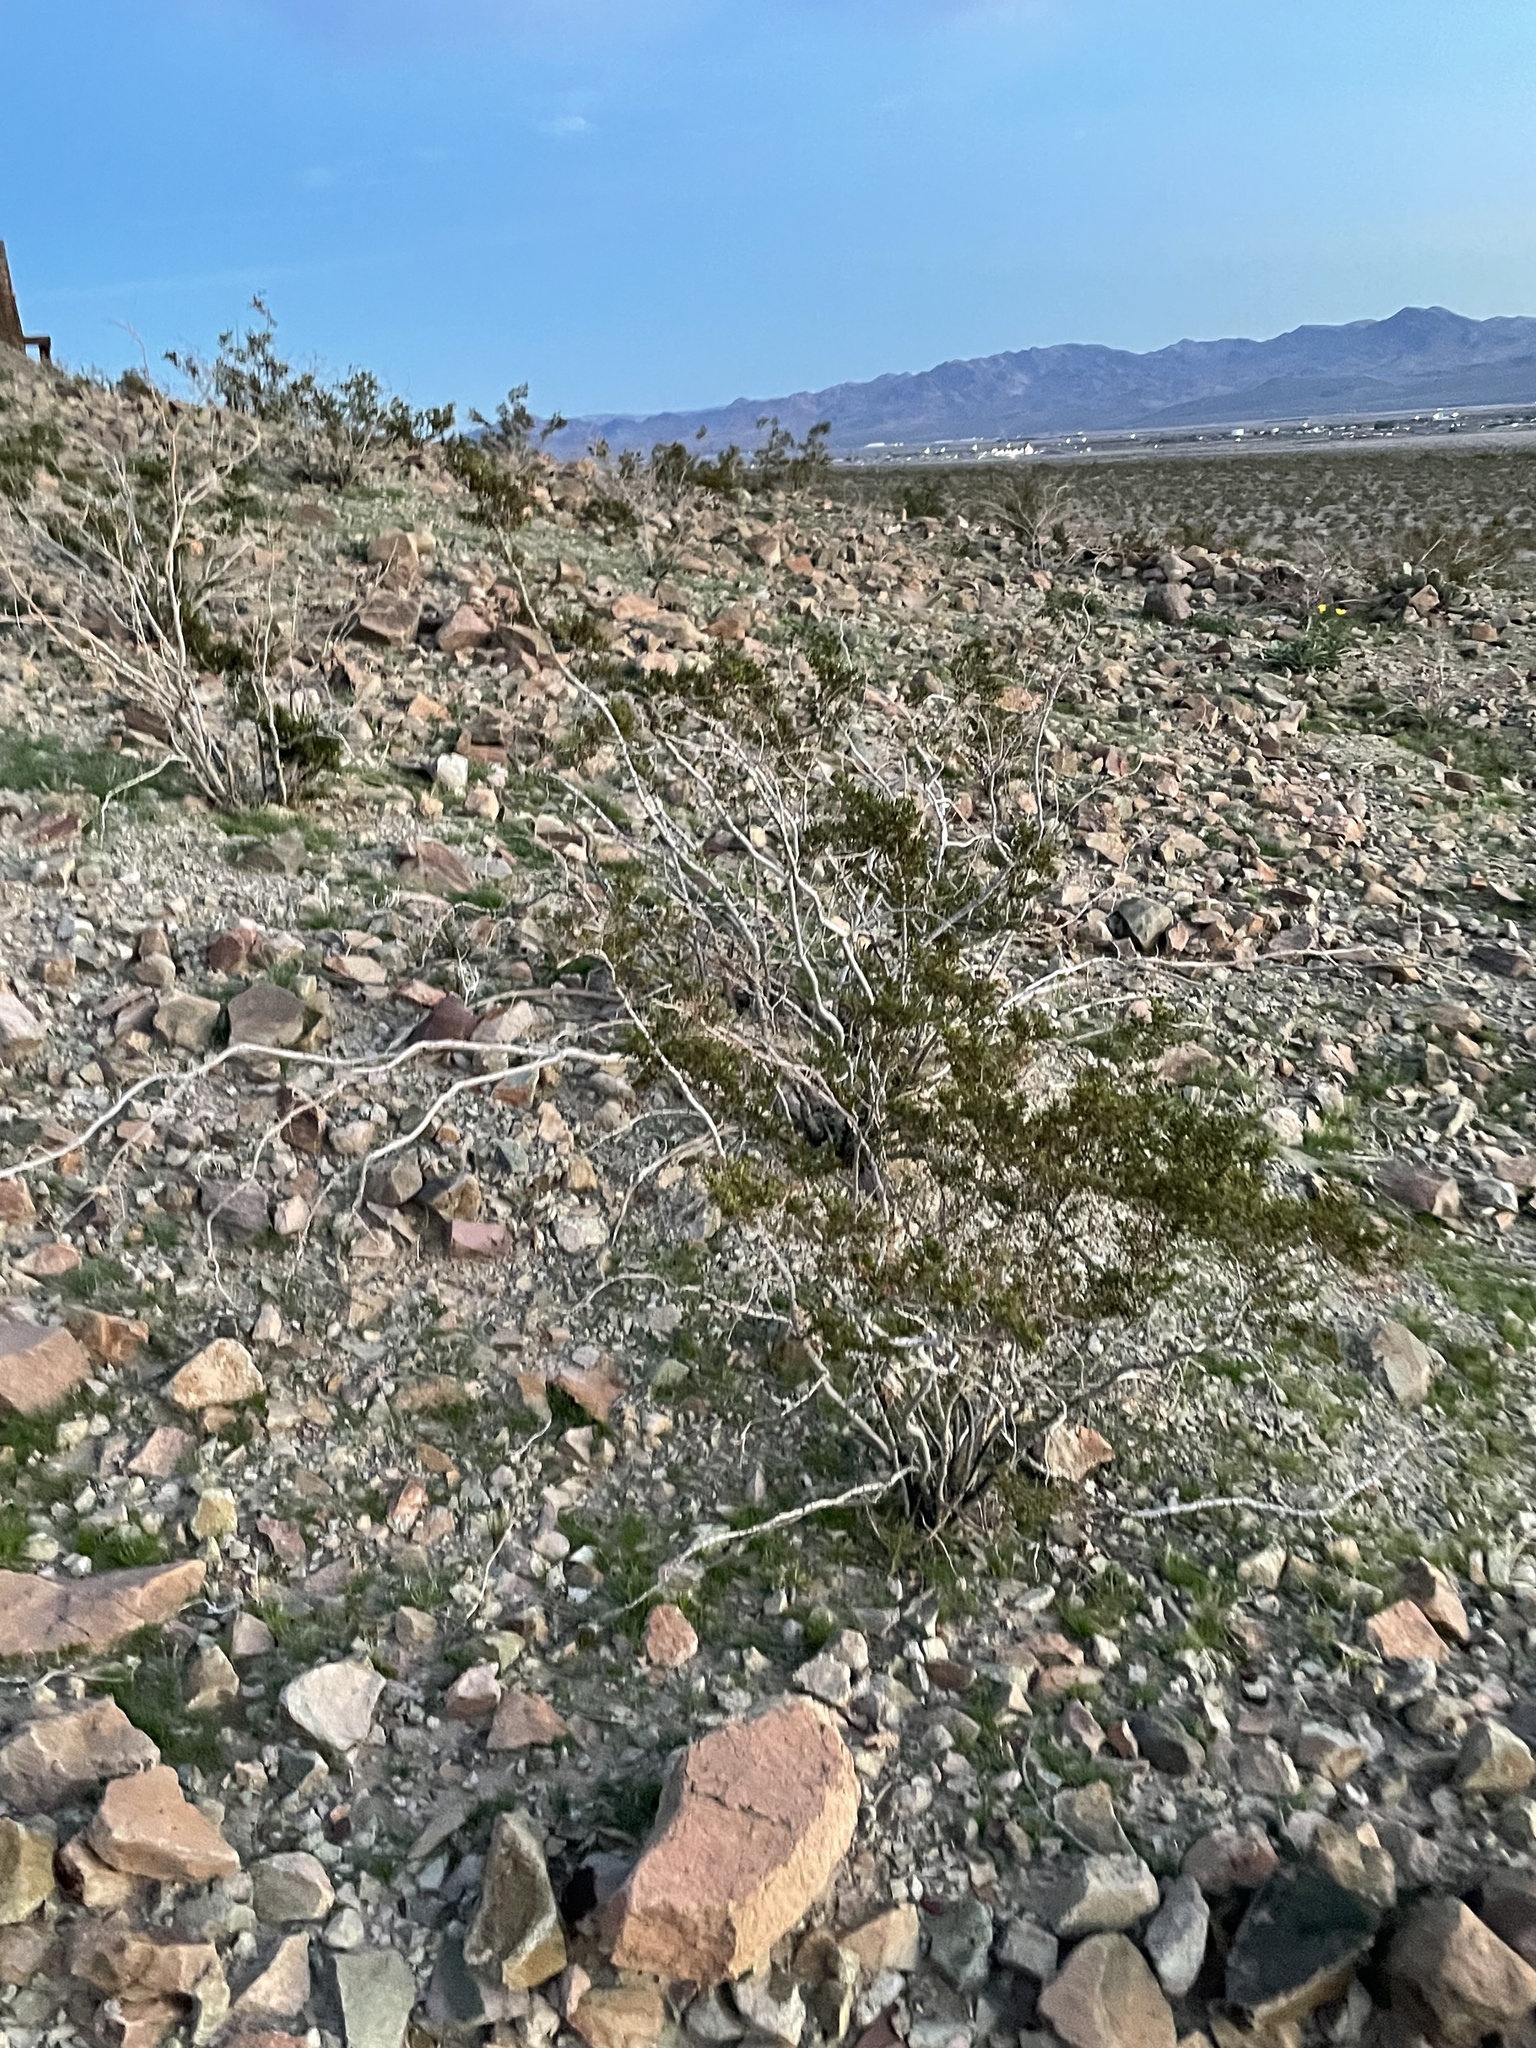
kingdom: Plantae
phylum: Tracheophyta
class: Magnoliopsida
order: Zygophyllales
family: Zygophyllaceae
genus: Larrea
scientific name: Larrea tridentata
